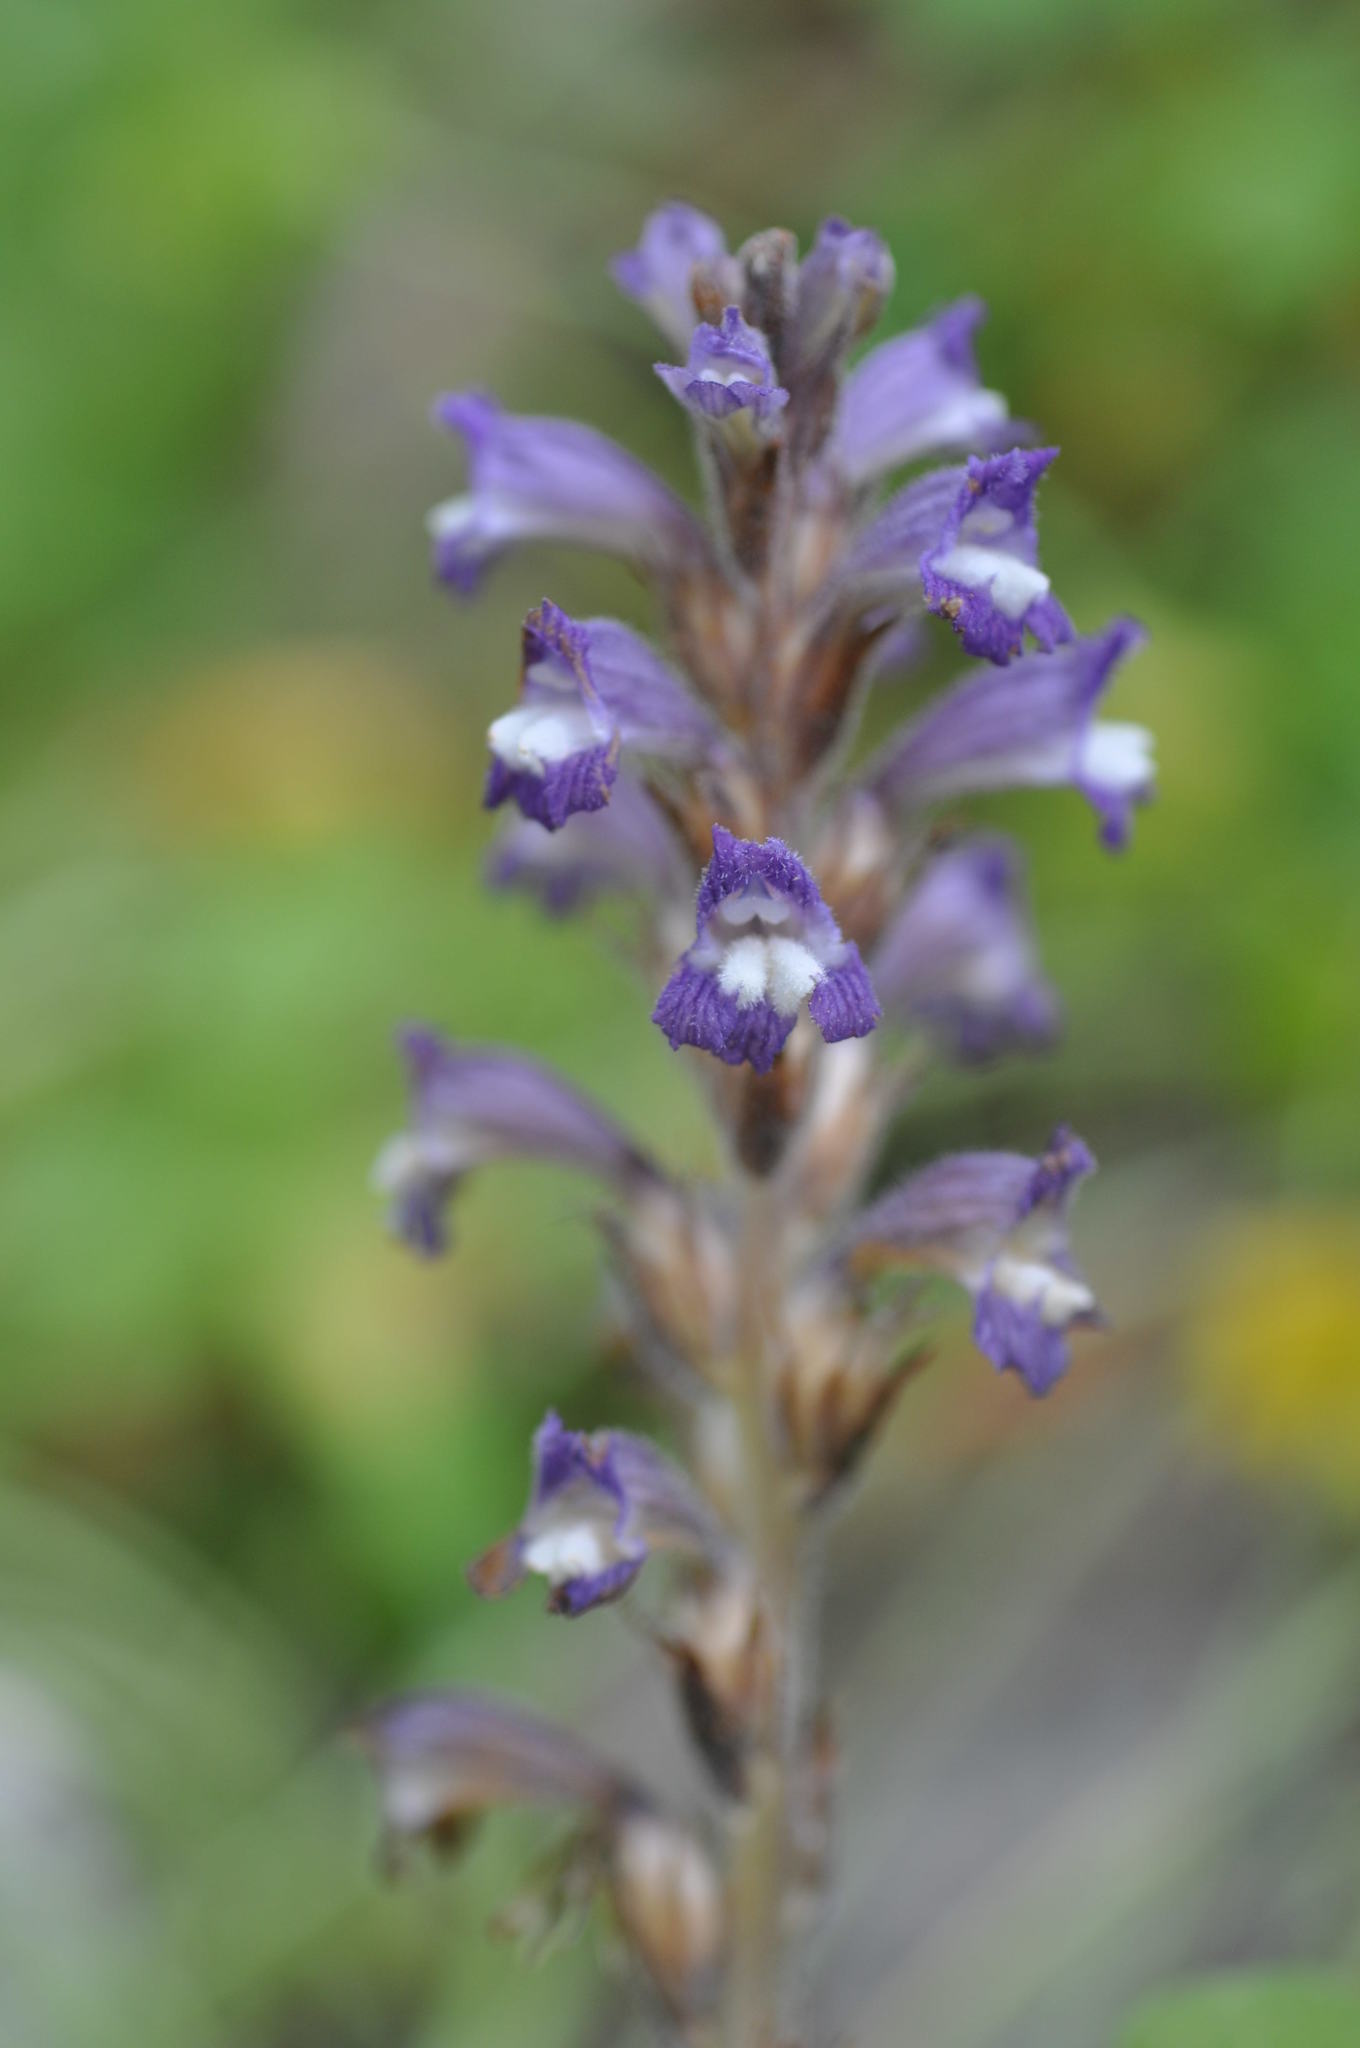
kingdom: Plantae
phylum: Tracheophyta
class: Magnoliopsida
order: Lamiales
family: Orobanchaceae
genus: Phelipanche
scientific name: Phelipanche mutelii
